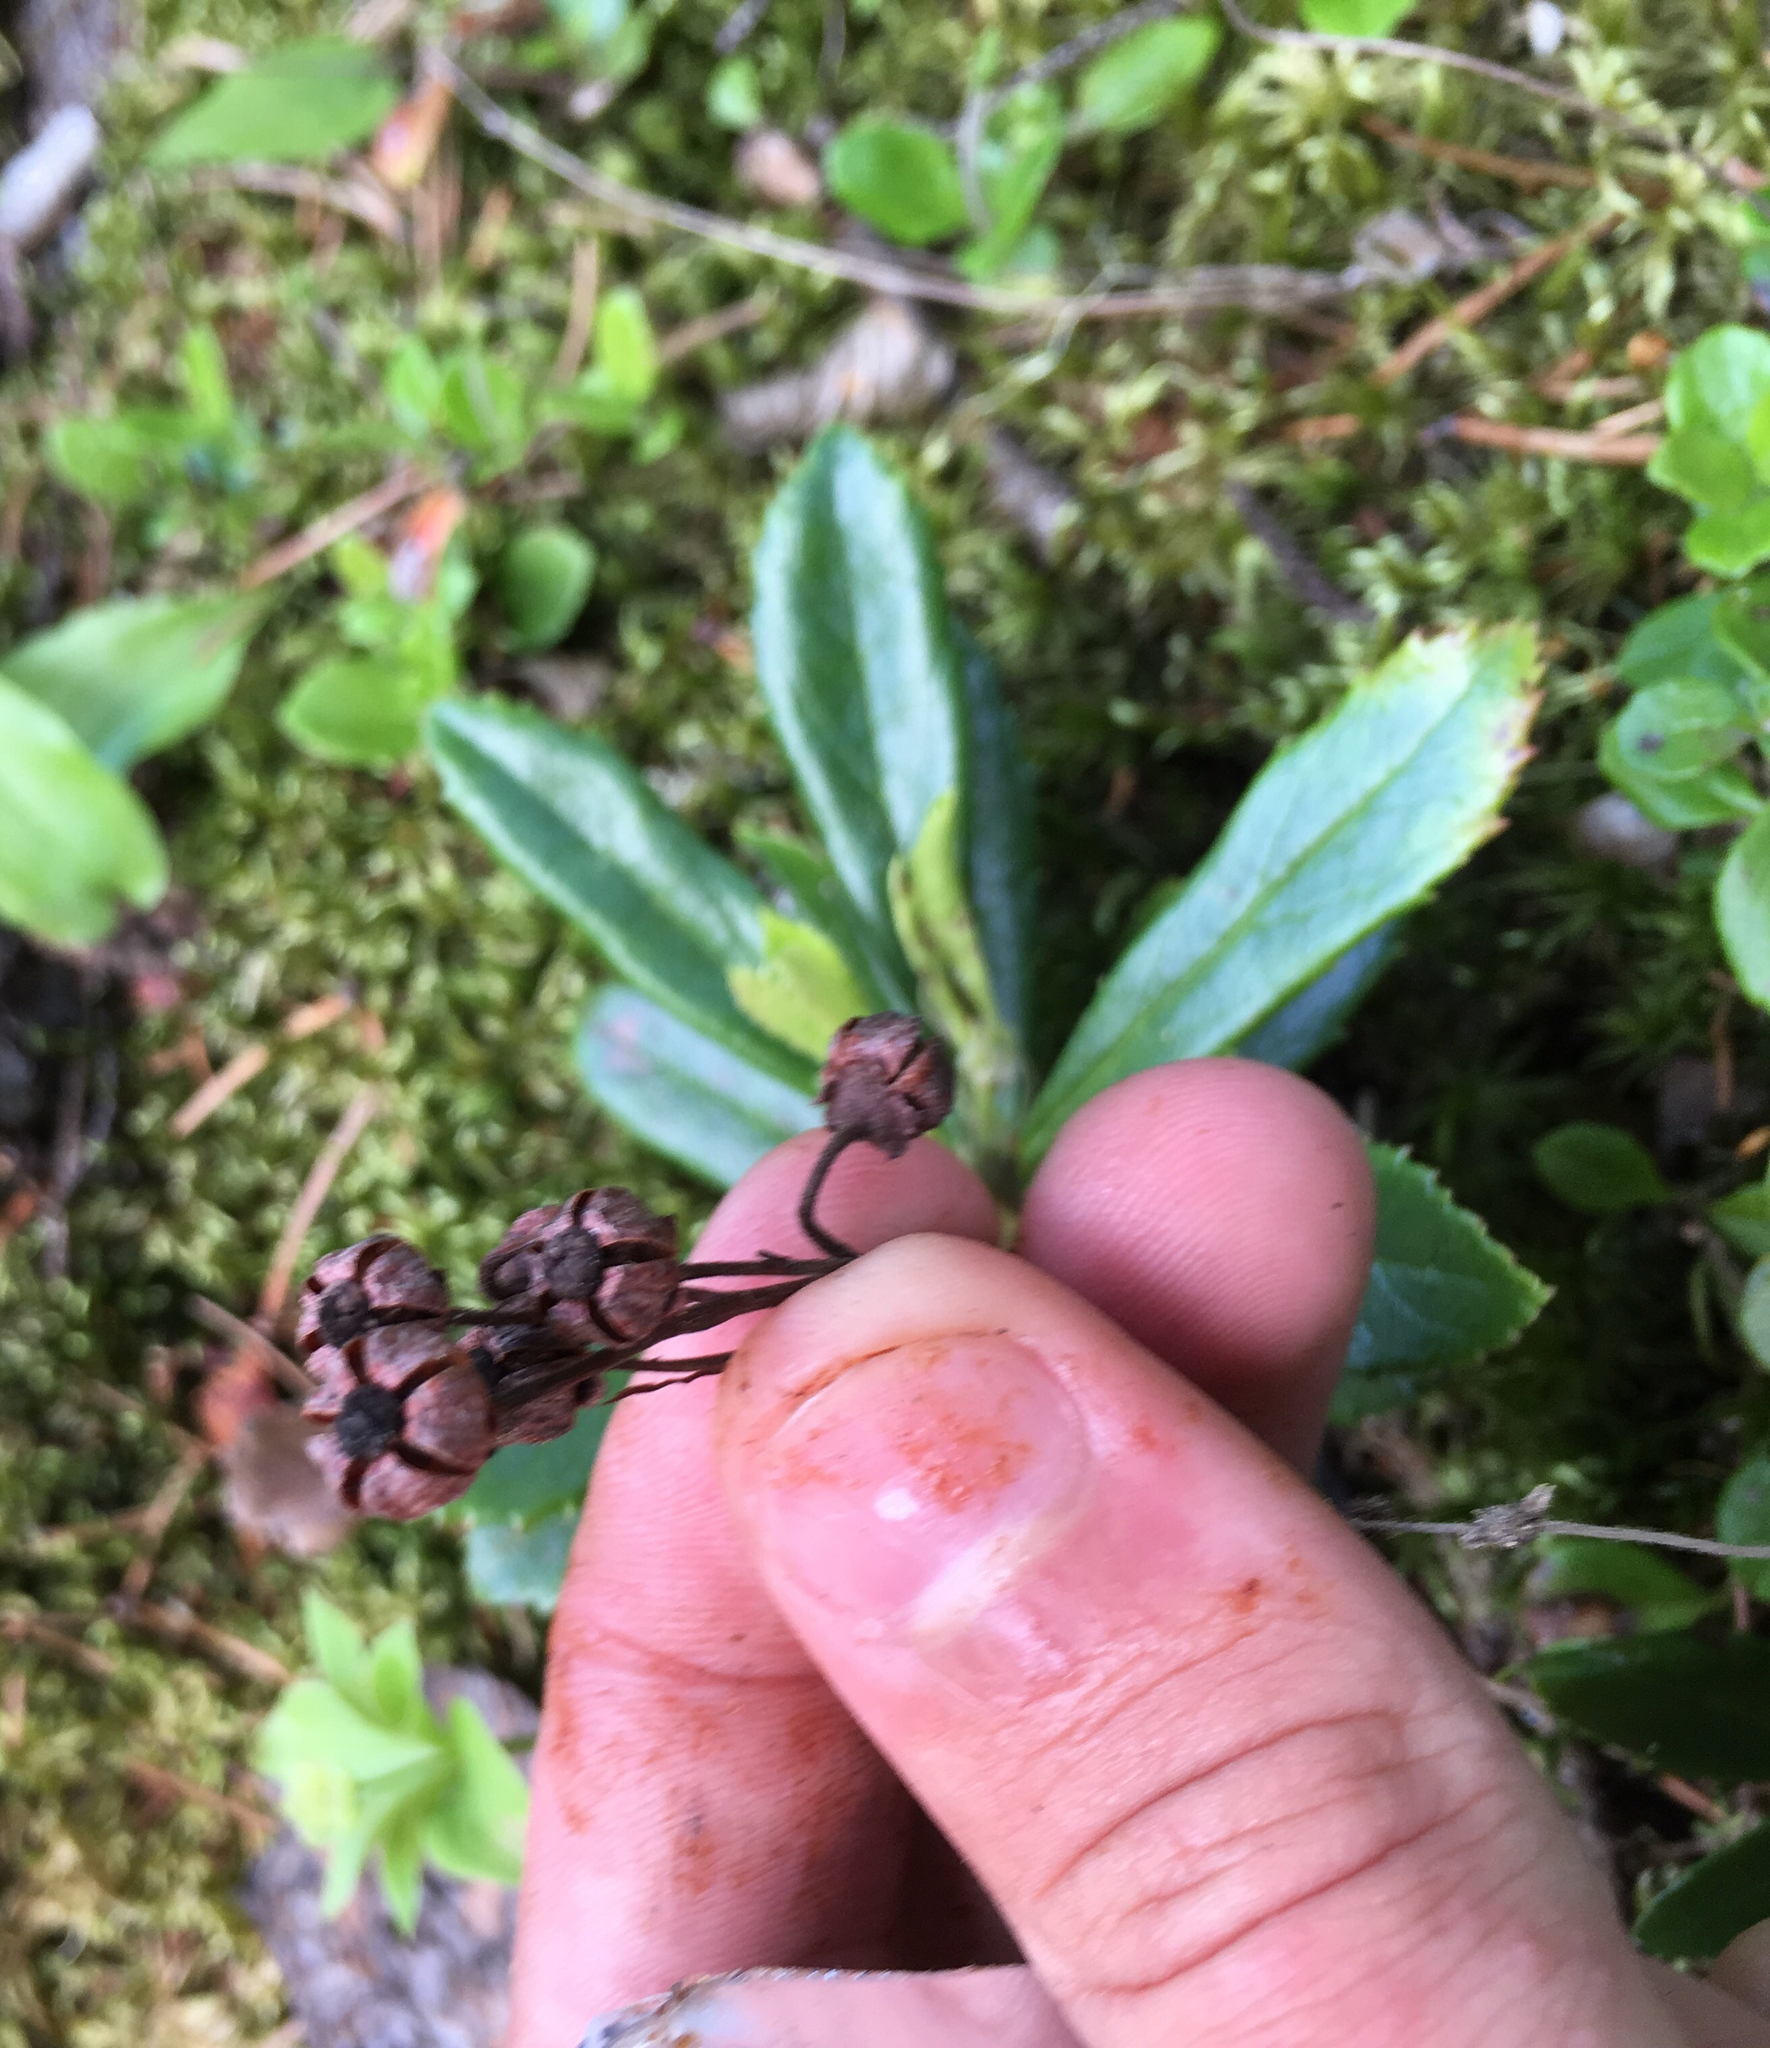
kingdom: Plantae
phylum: Tracheophyta
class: Magnoliopsida
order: Ericales
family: Ericaceae
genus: Chimaphila
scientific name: Chimaphila umbellata
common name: Pipsissewa
